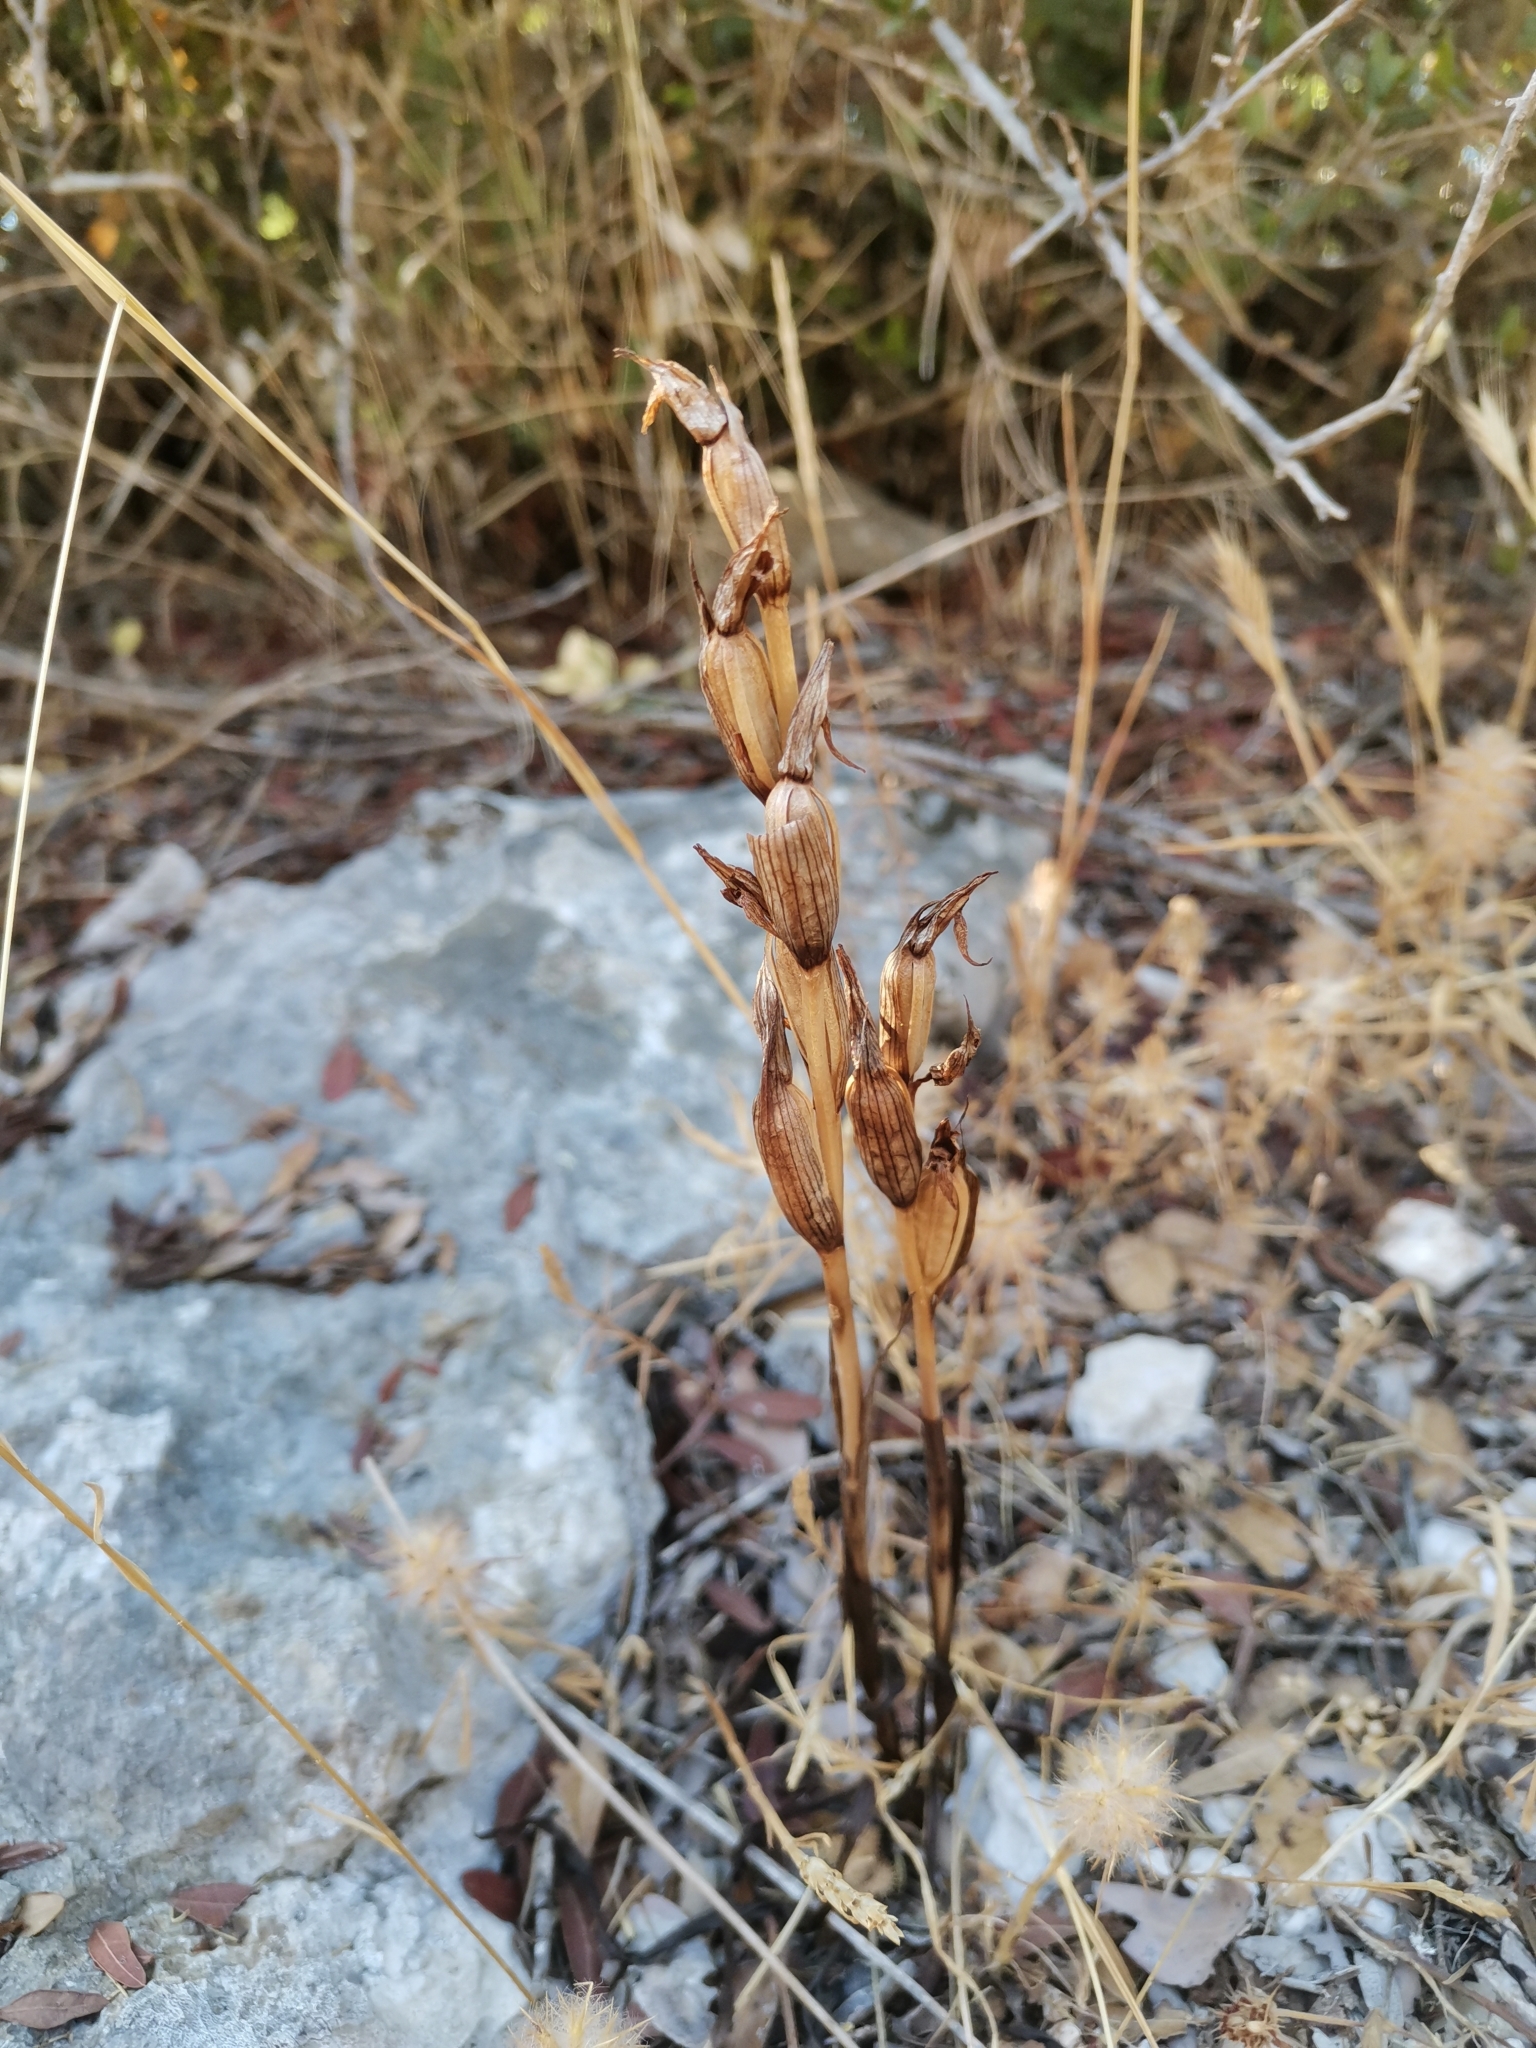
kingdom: Plantae
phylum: Tracheophyta
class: Liliopsida
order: Asparagales
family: Orchidaceae
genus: Limodorum
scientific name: Limodorum abortivum
